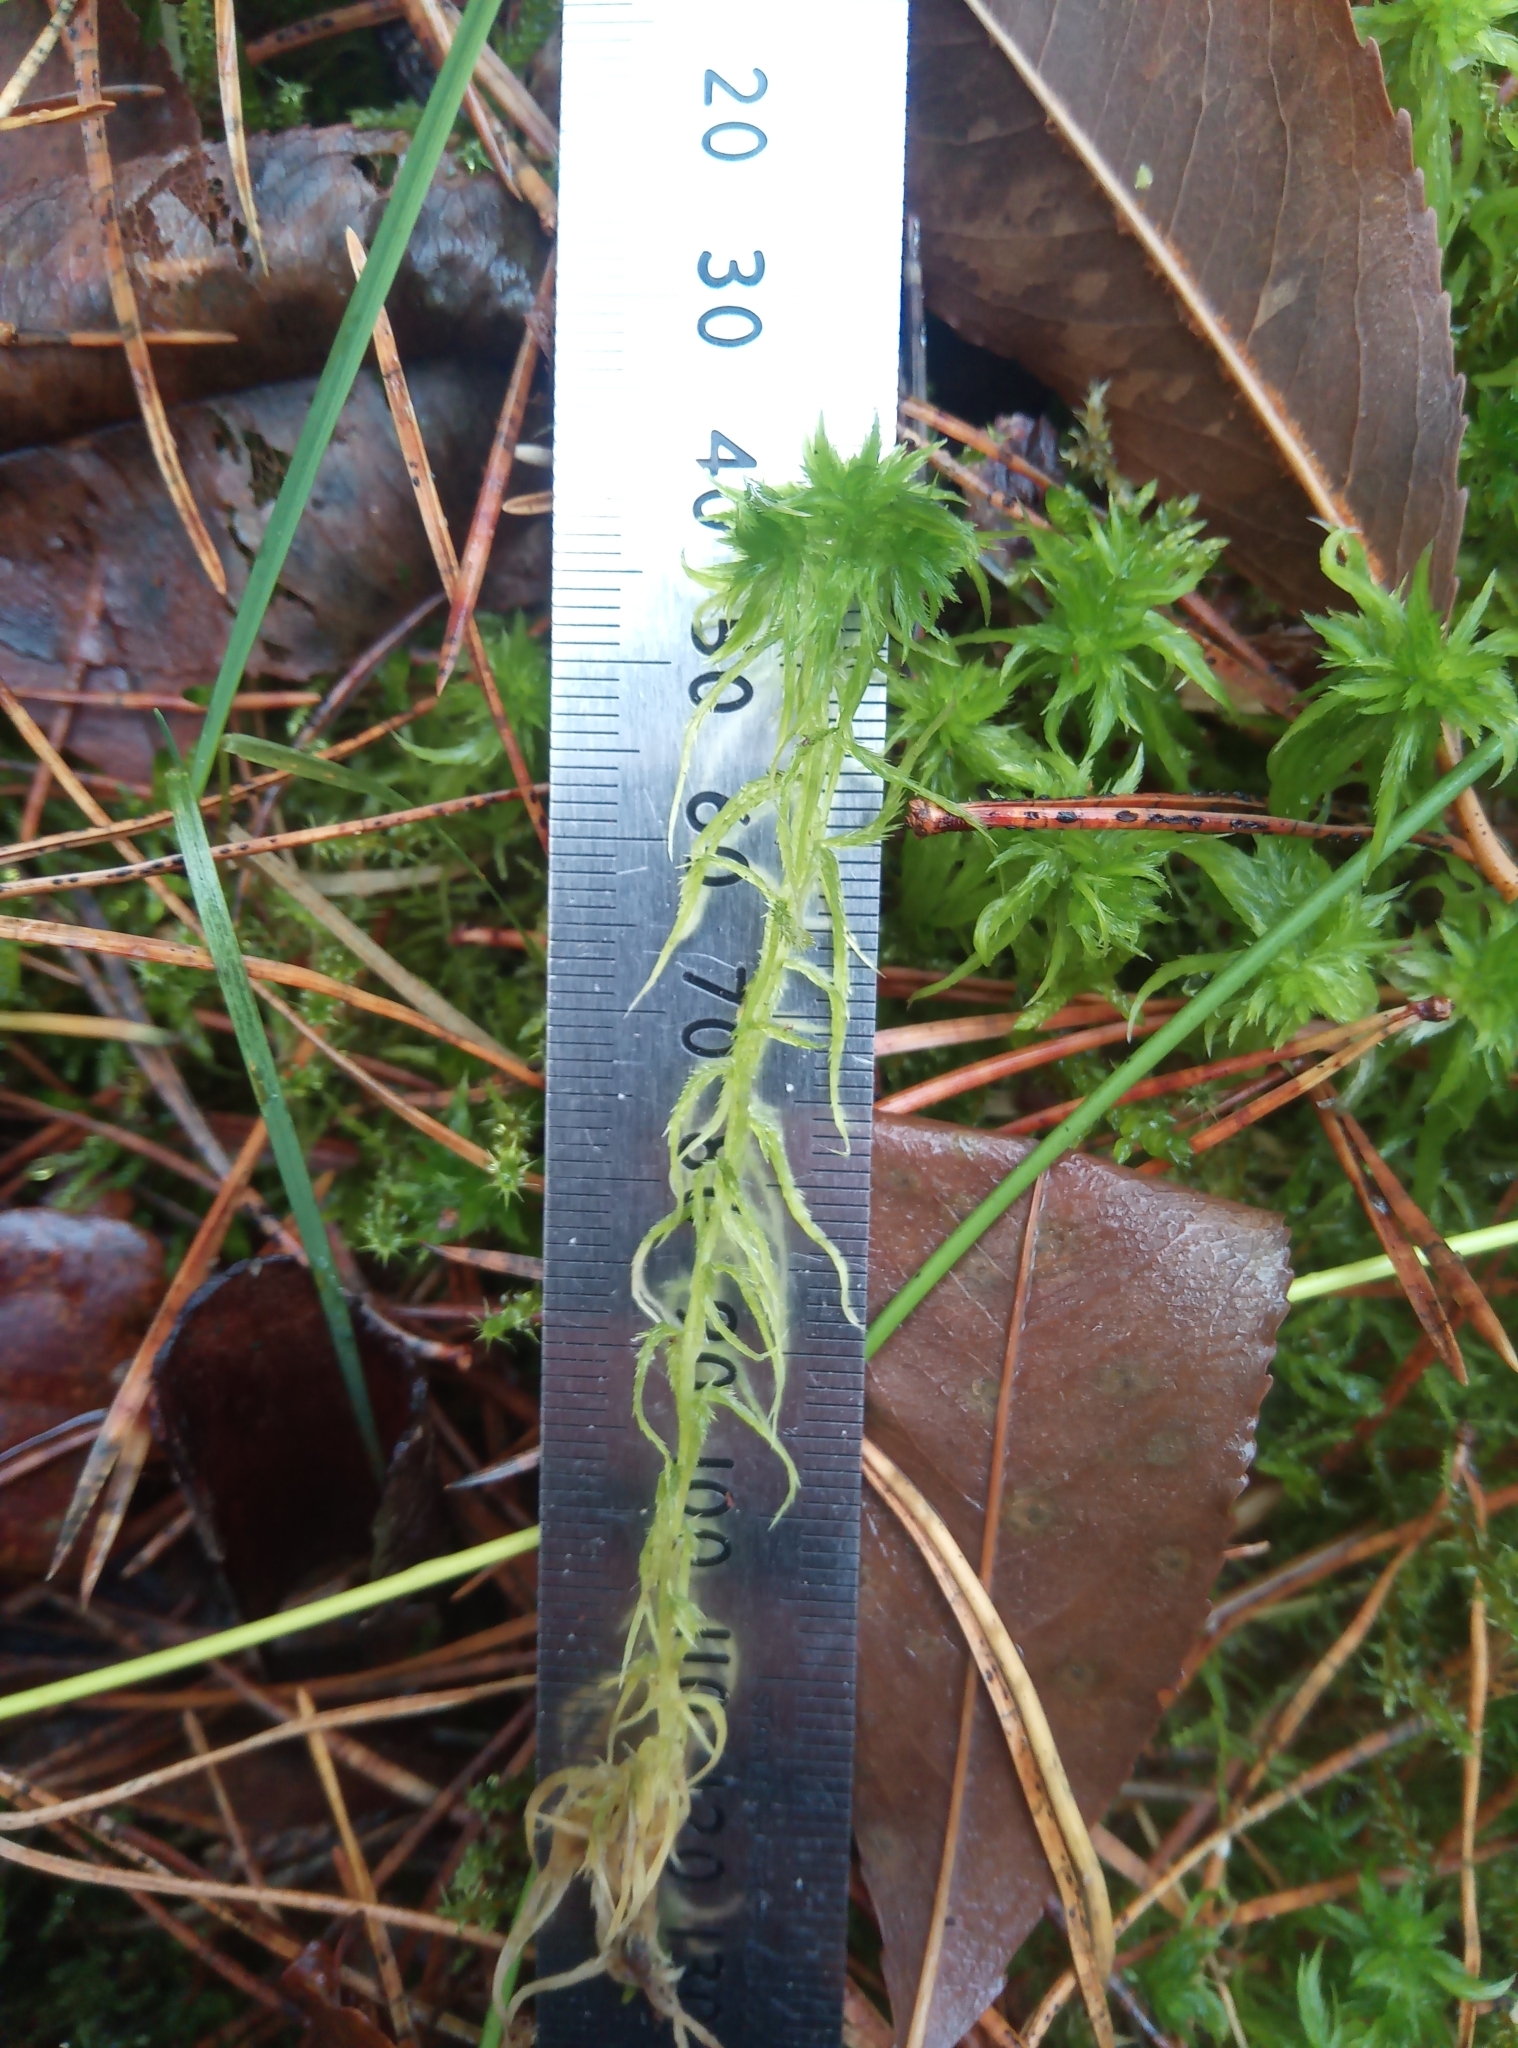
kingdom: Plantae
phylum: Bryophyta
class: Sphagnopsida
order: Sphagnales
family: Sphagnaceae
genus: Sphagnum
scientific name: Sphagnum cuspidatum
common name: Feathery peat moss
